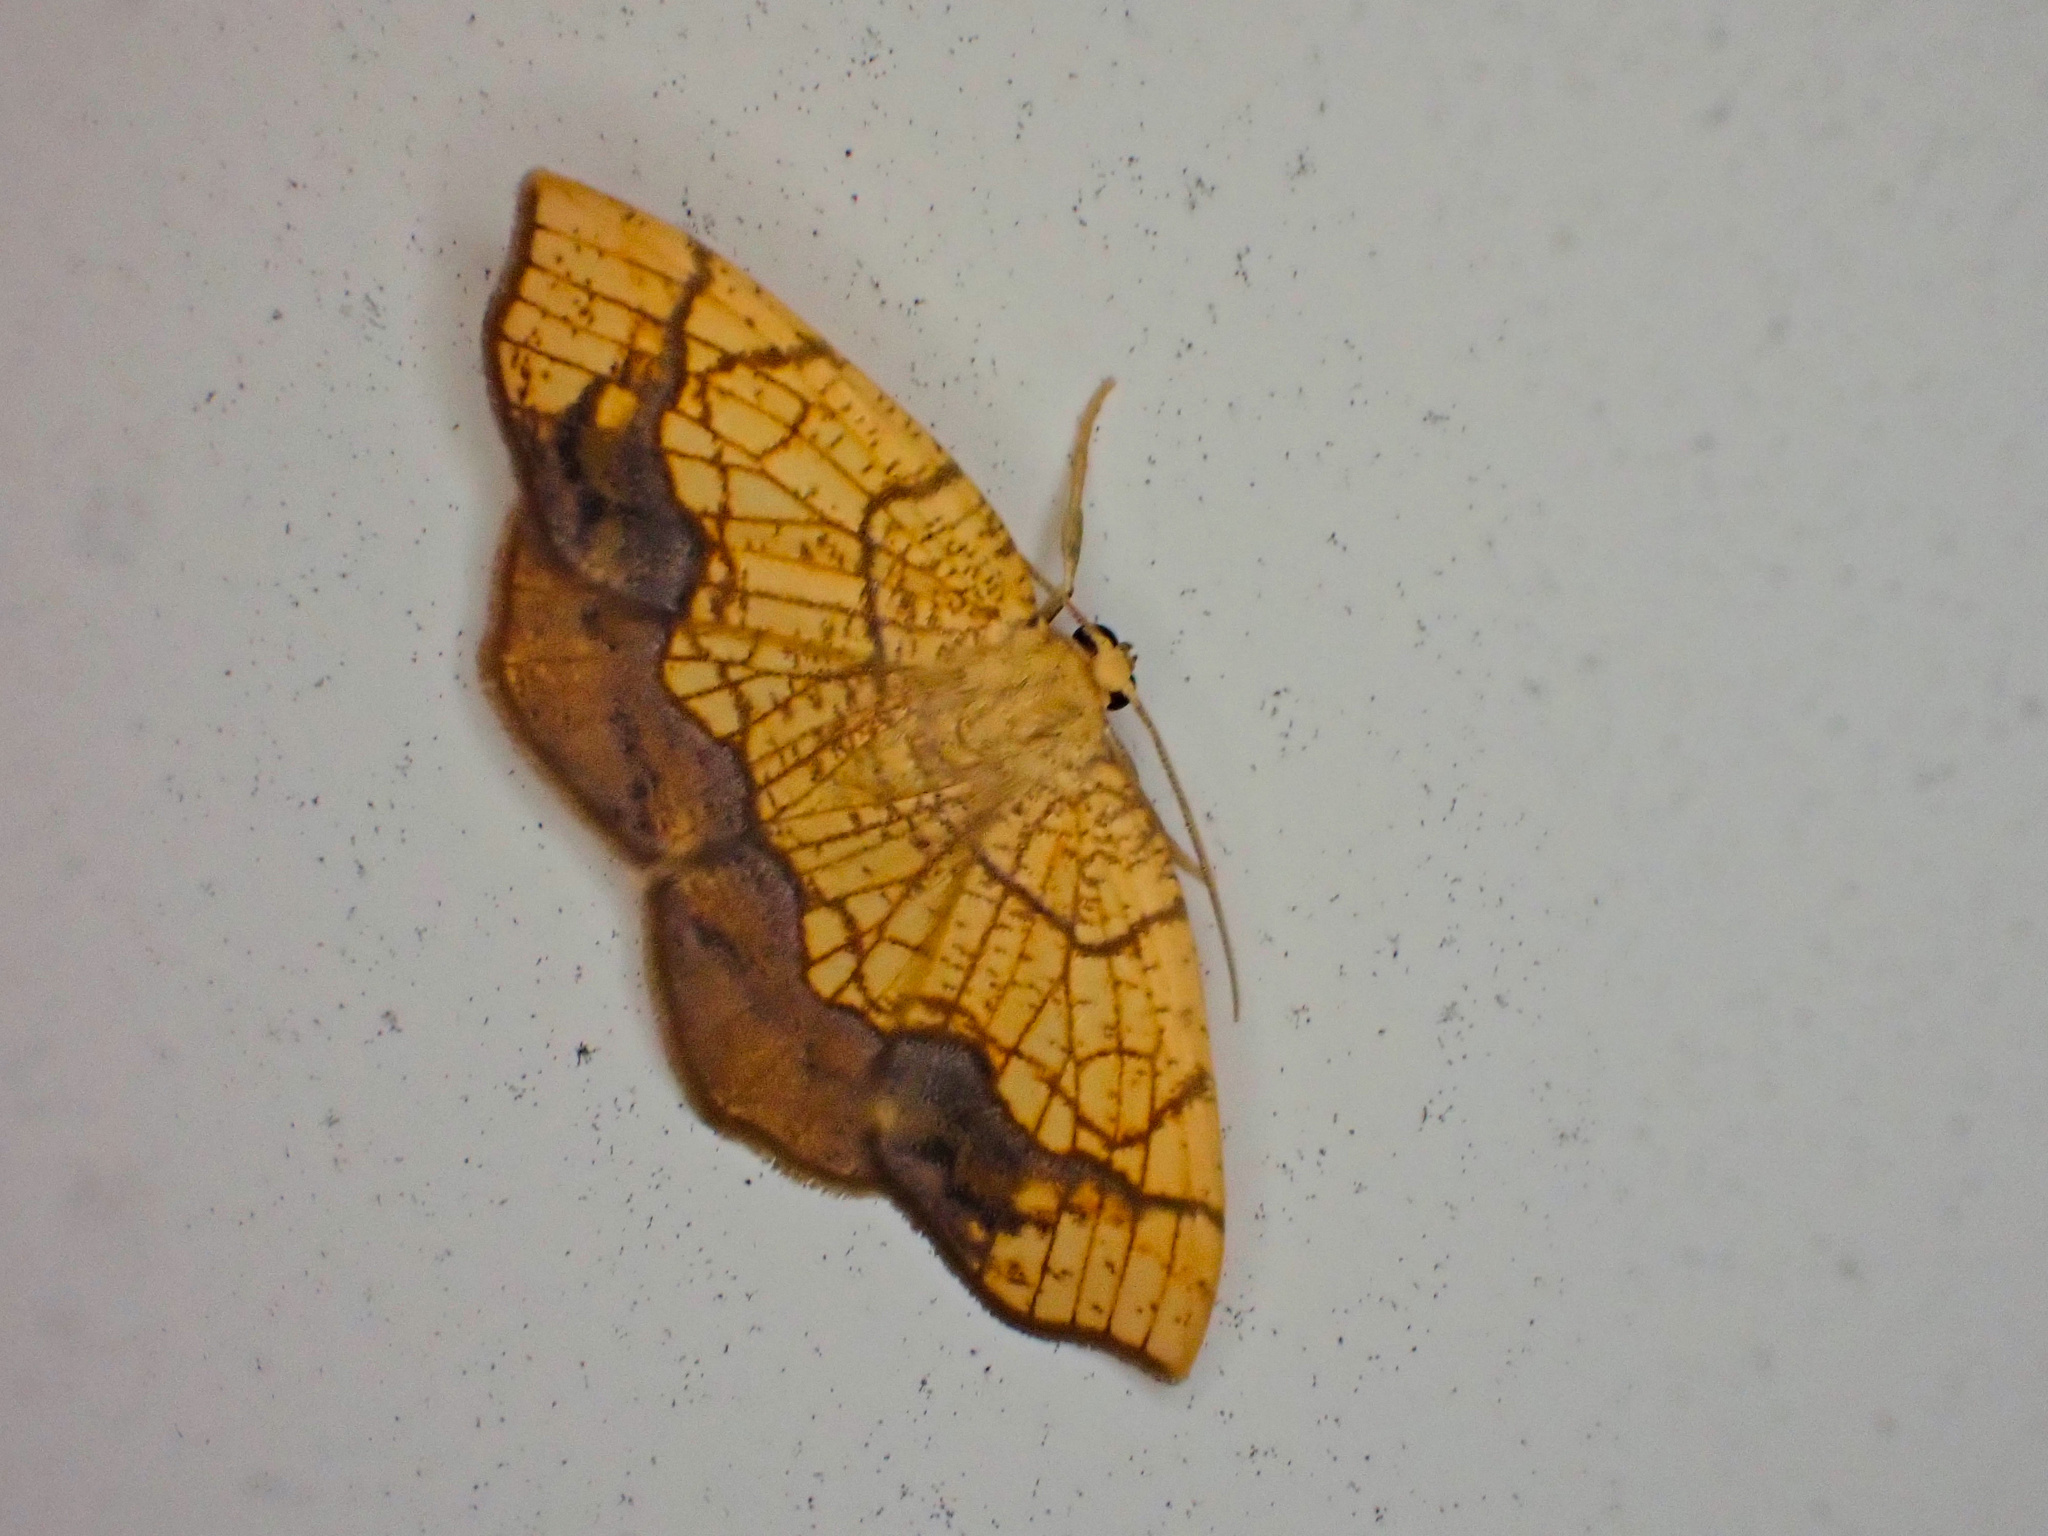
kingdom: Animalia
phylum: Arthropoda
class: Insecta
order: Lepidoptera
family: Geometridae
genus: Nematocampa
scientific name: Nematocampa resistaria
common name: Horned spanworm moth
